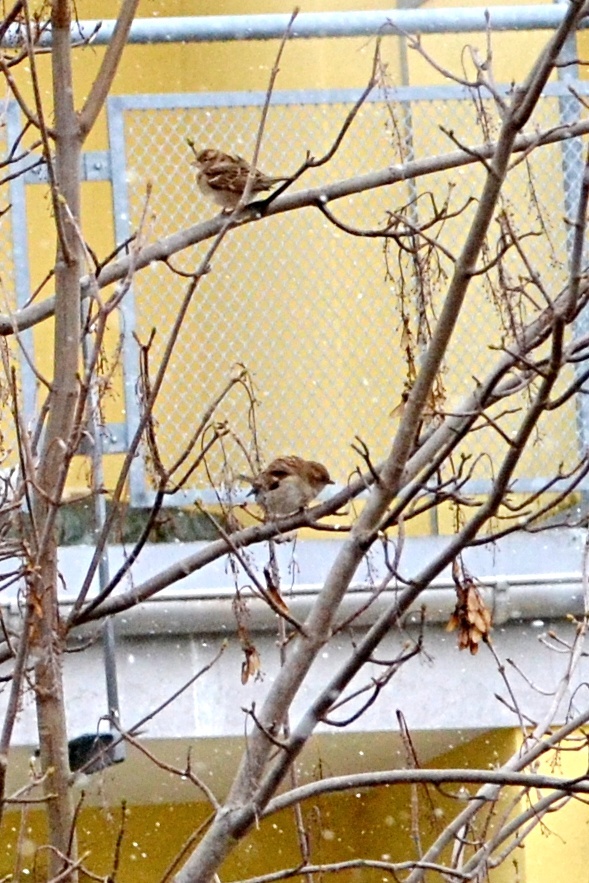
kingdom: Animalia
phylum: Chordata
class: Aves
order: Passeriformes
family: Passeridae
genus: Passer
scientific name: Passer montanus
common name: Eurasian tree sparrow
